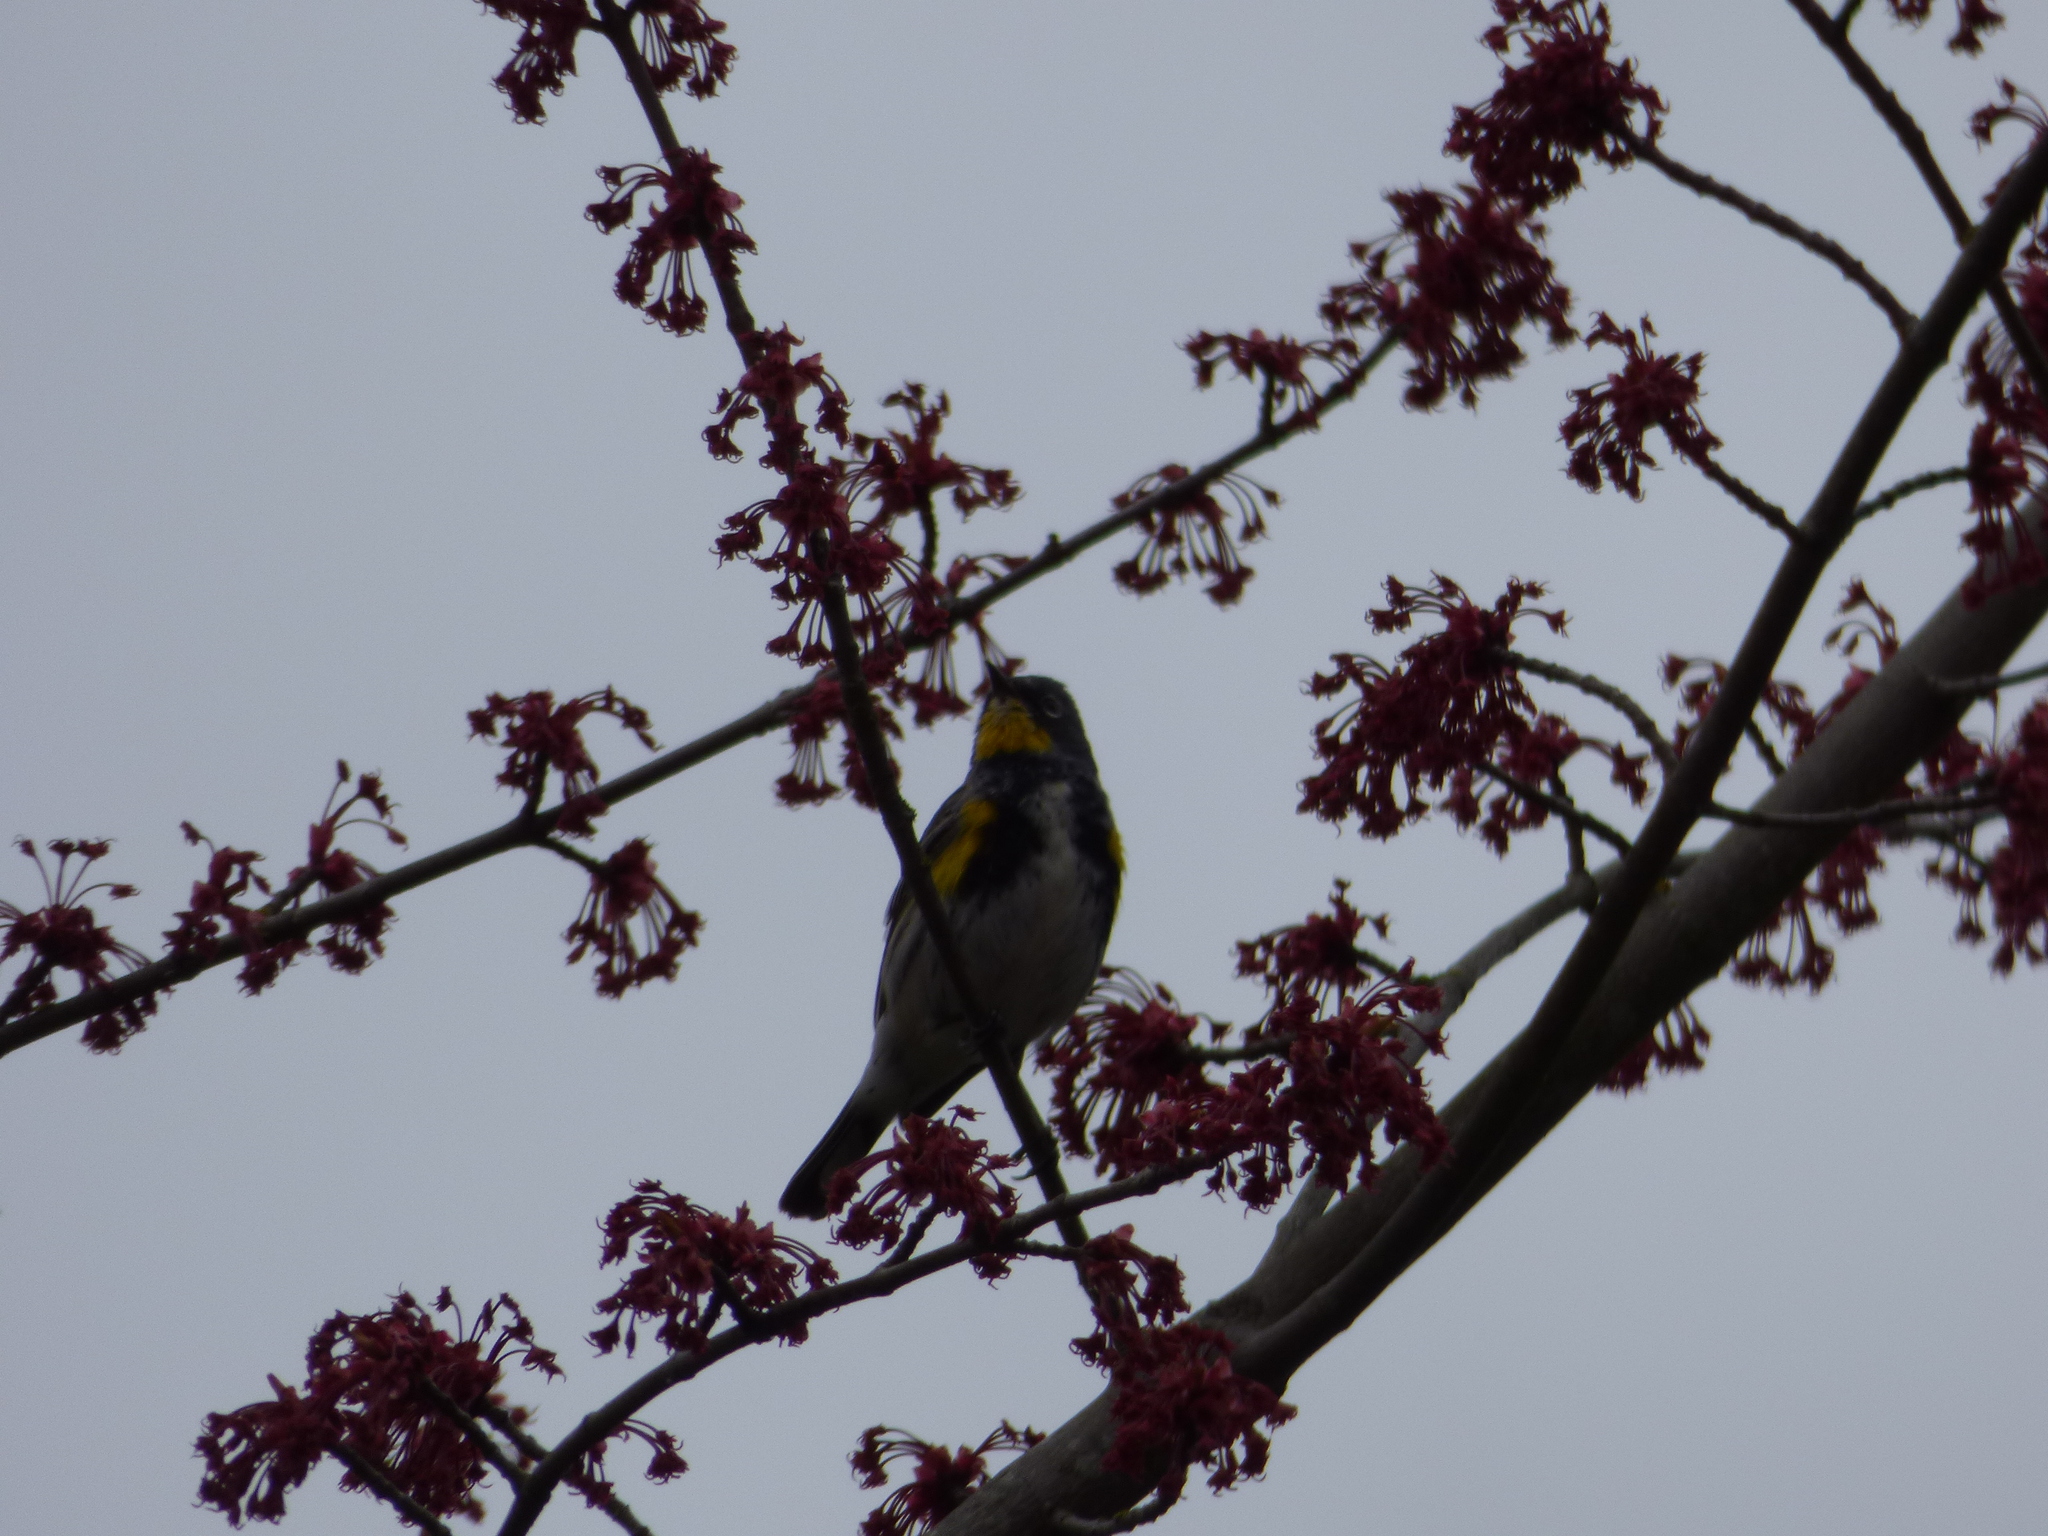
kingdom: Animalia
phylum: Chordata
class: Aves
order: Passeriformes
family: Parulidae
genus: Setophaga
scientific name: Setophaga coronata
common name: Myrtle warbler
